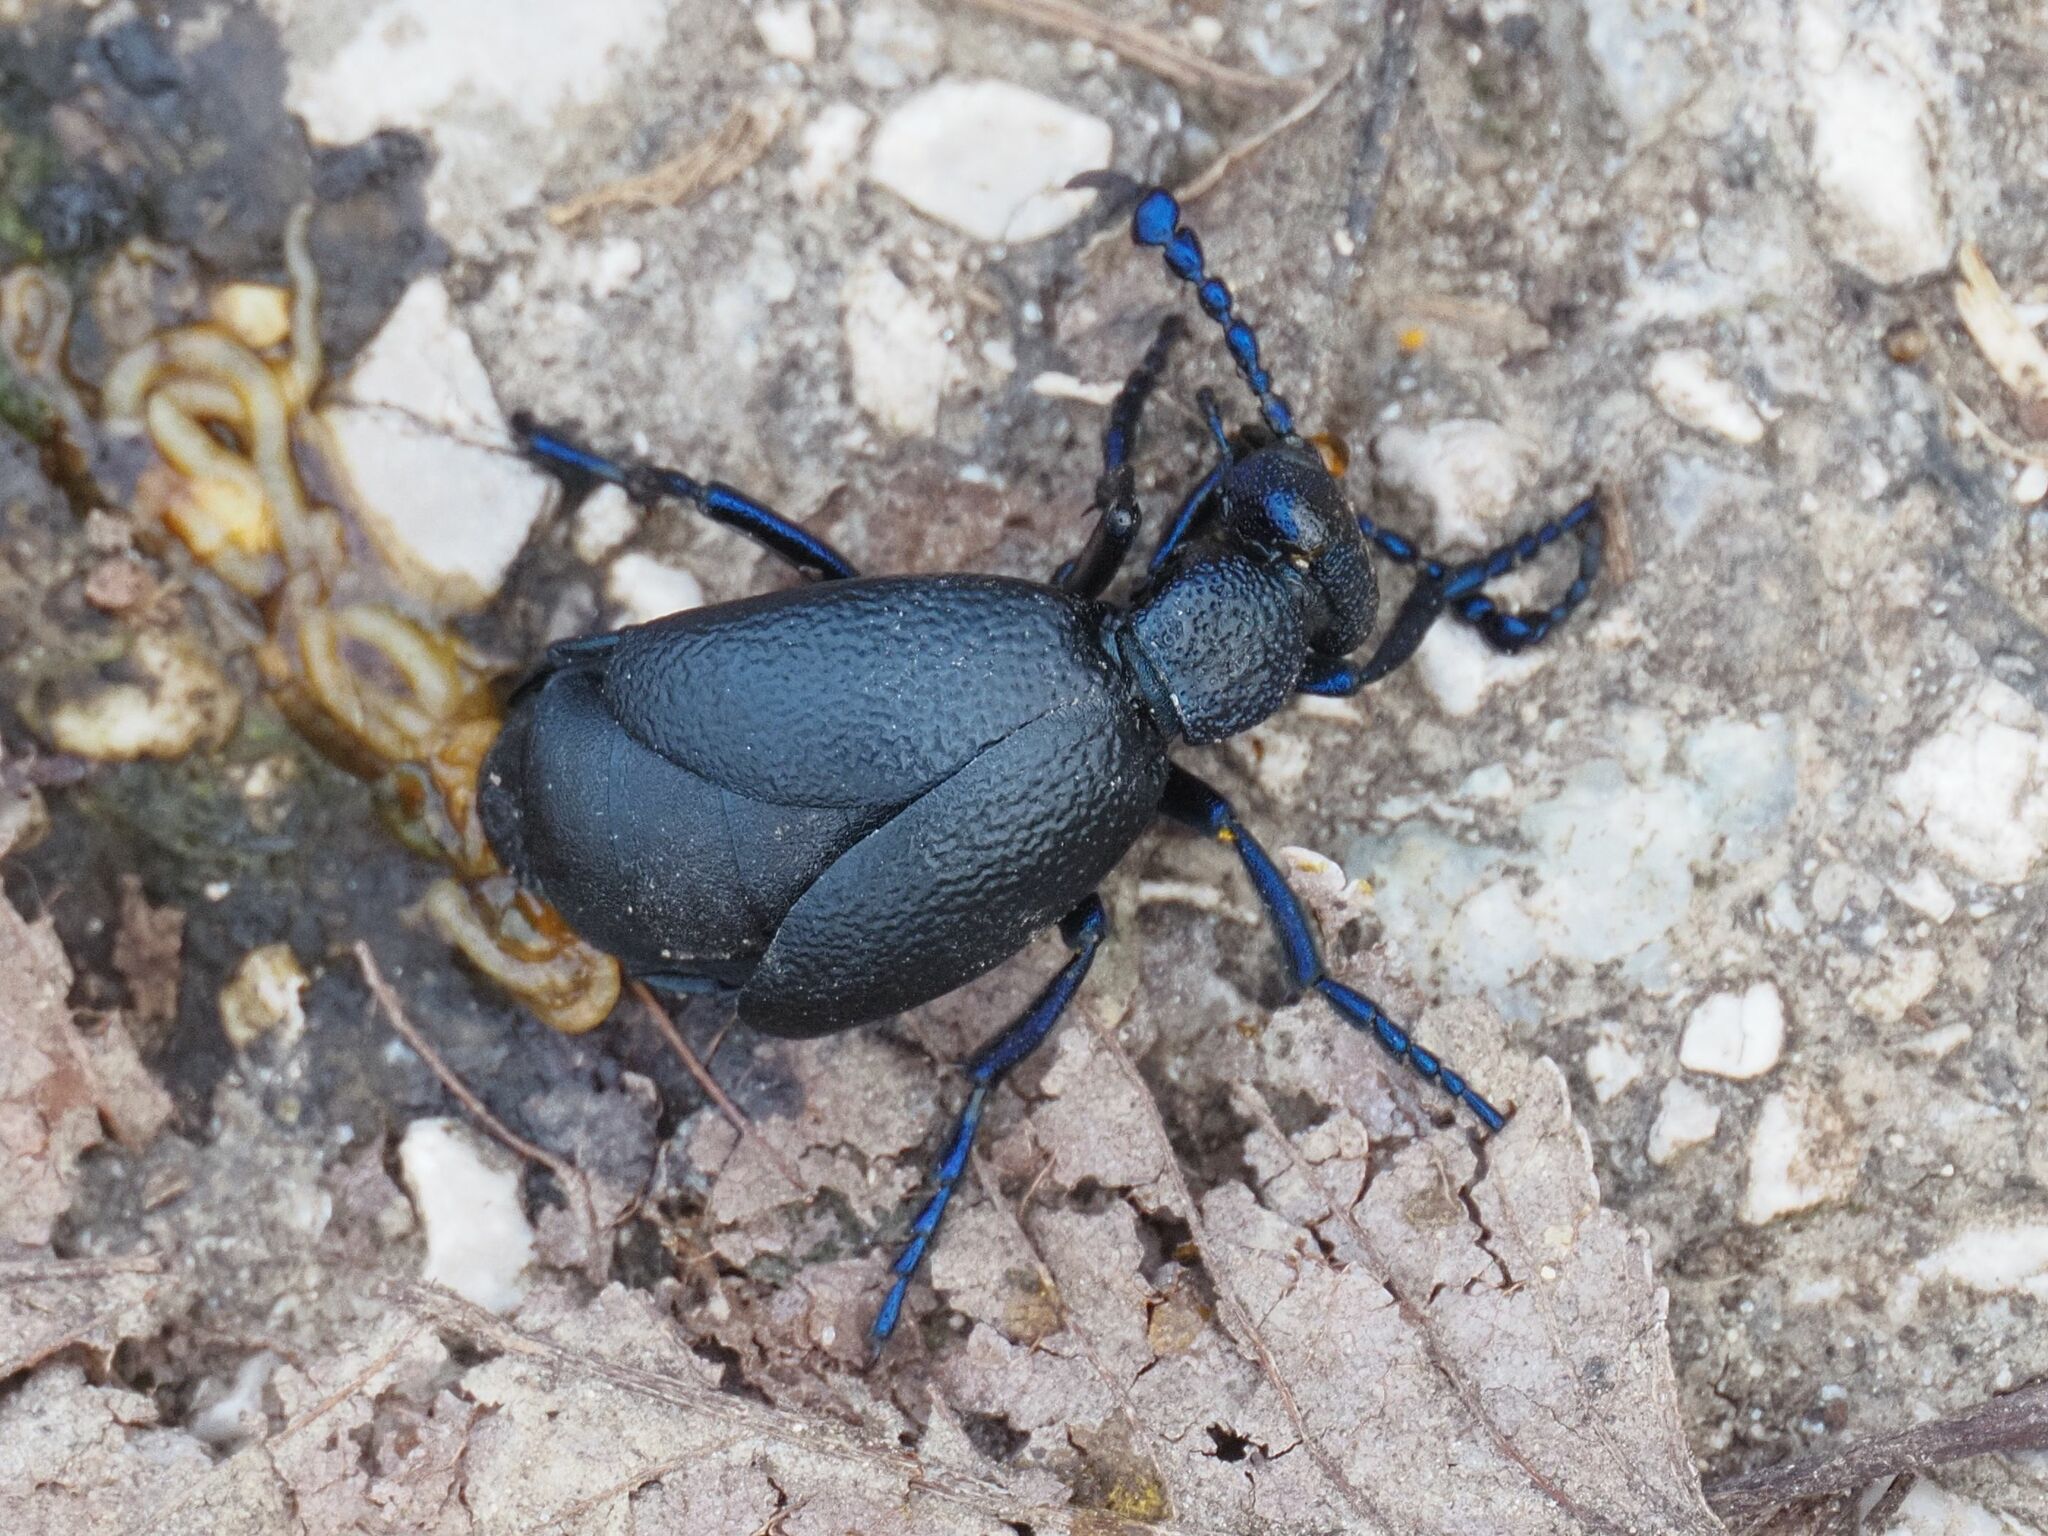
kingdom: Animalia
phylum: Arthropoda
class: Insecta
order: Coleoptera
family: Meloidae
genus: Meloe
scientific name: Meloe proscarabaeus
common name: Black oil-beetle
